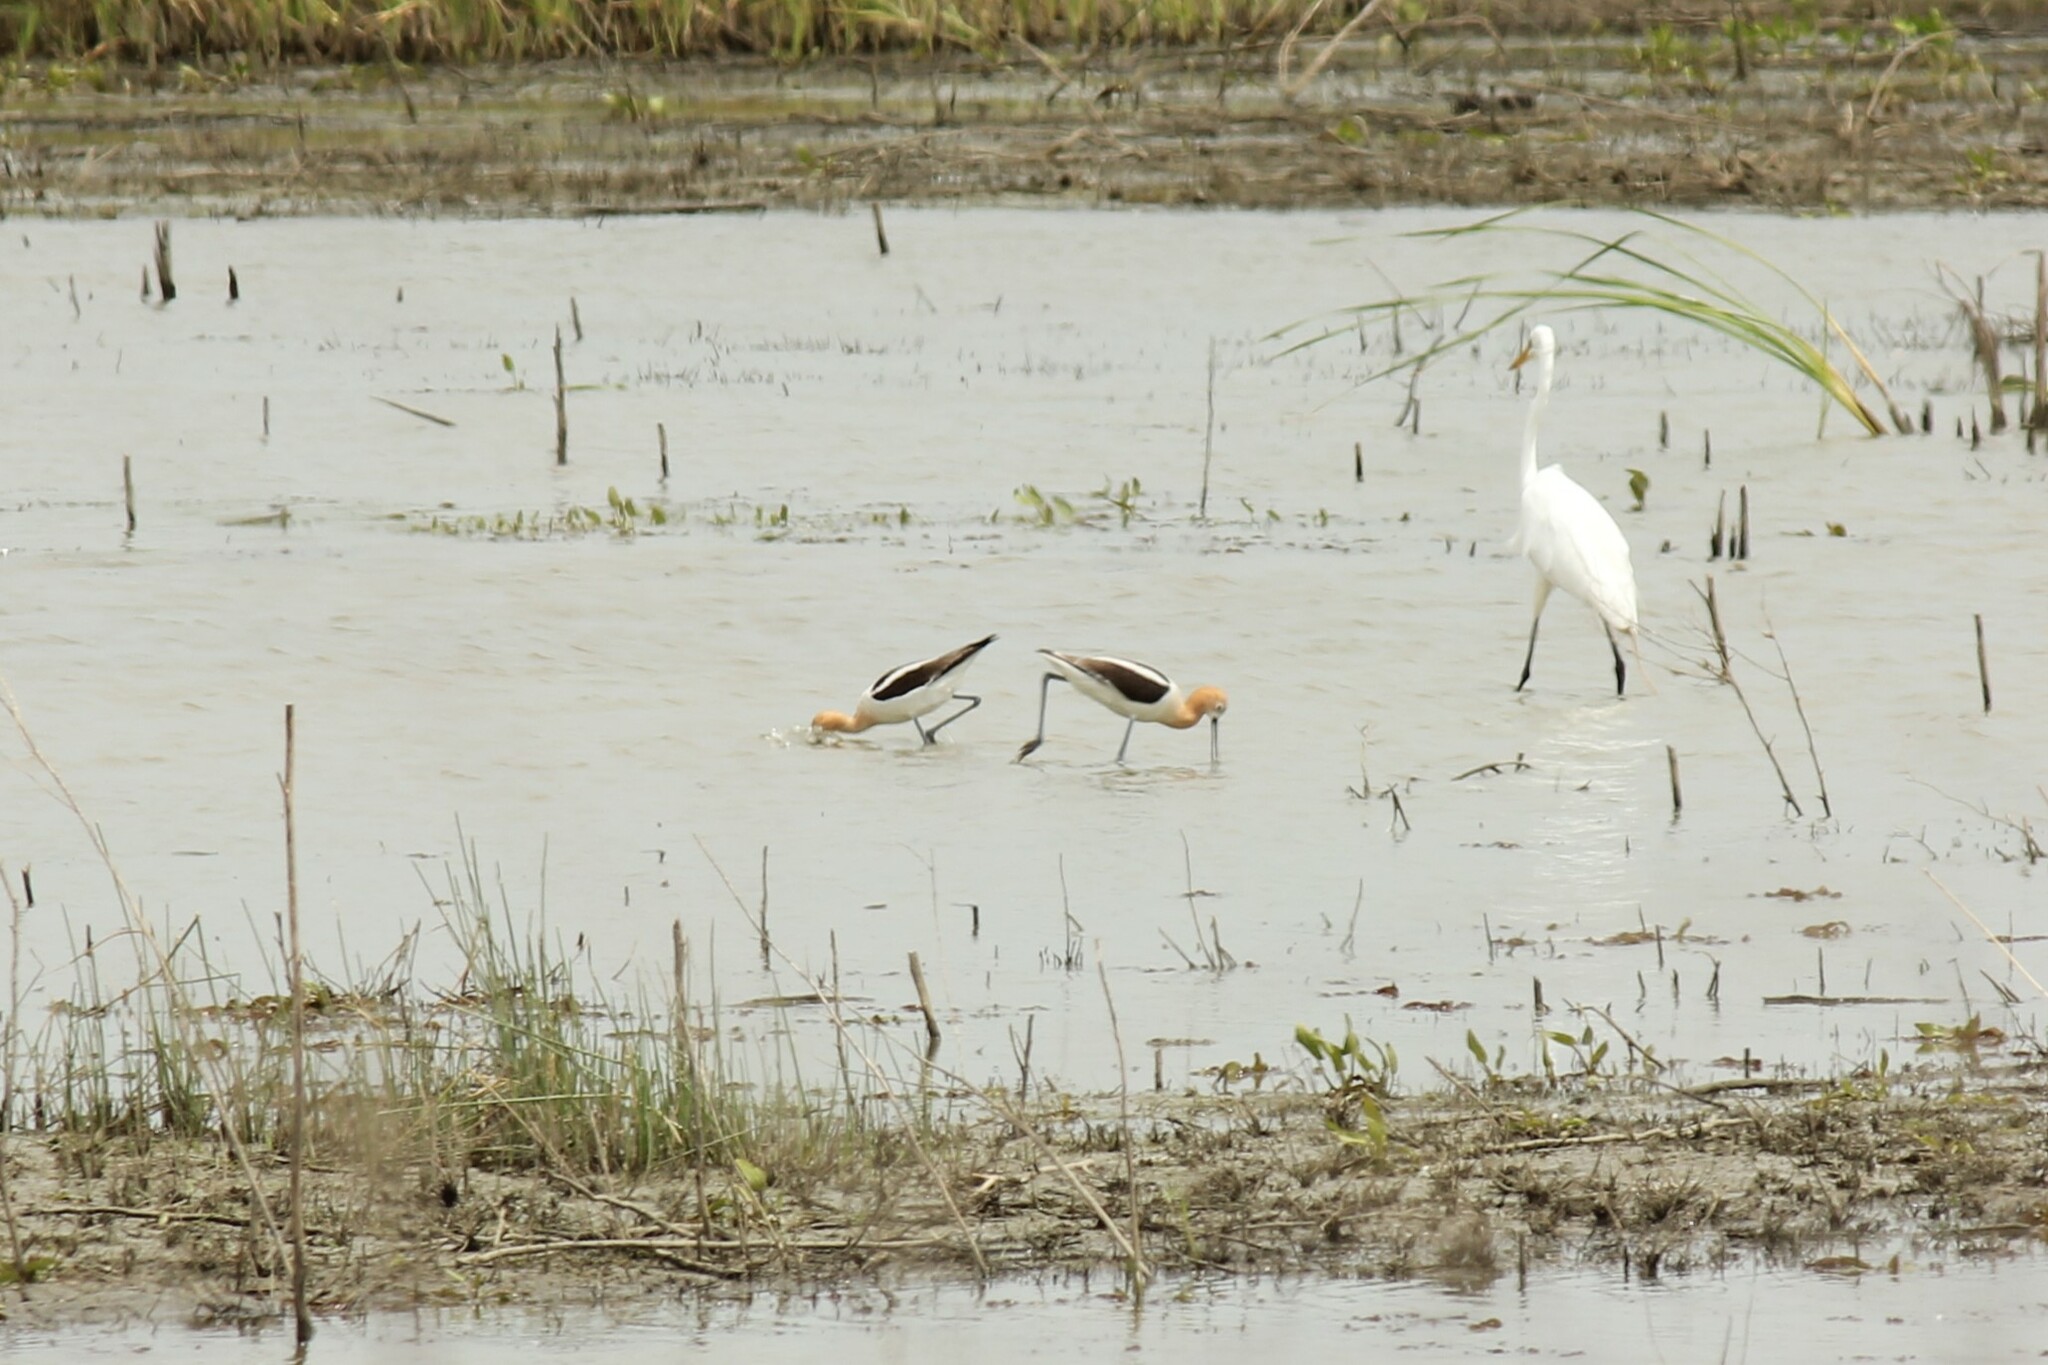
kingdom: Animalia
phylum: Chordata
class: Aves
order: Charadriiformes
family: Recurvirostridae
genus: Recurvirostra
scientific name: Recurvirostra americana
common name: American avocet
